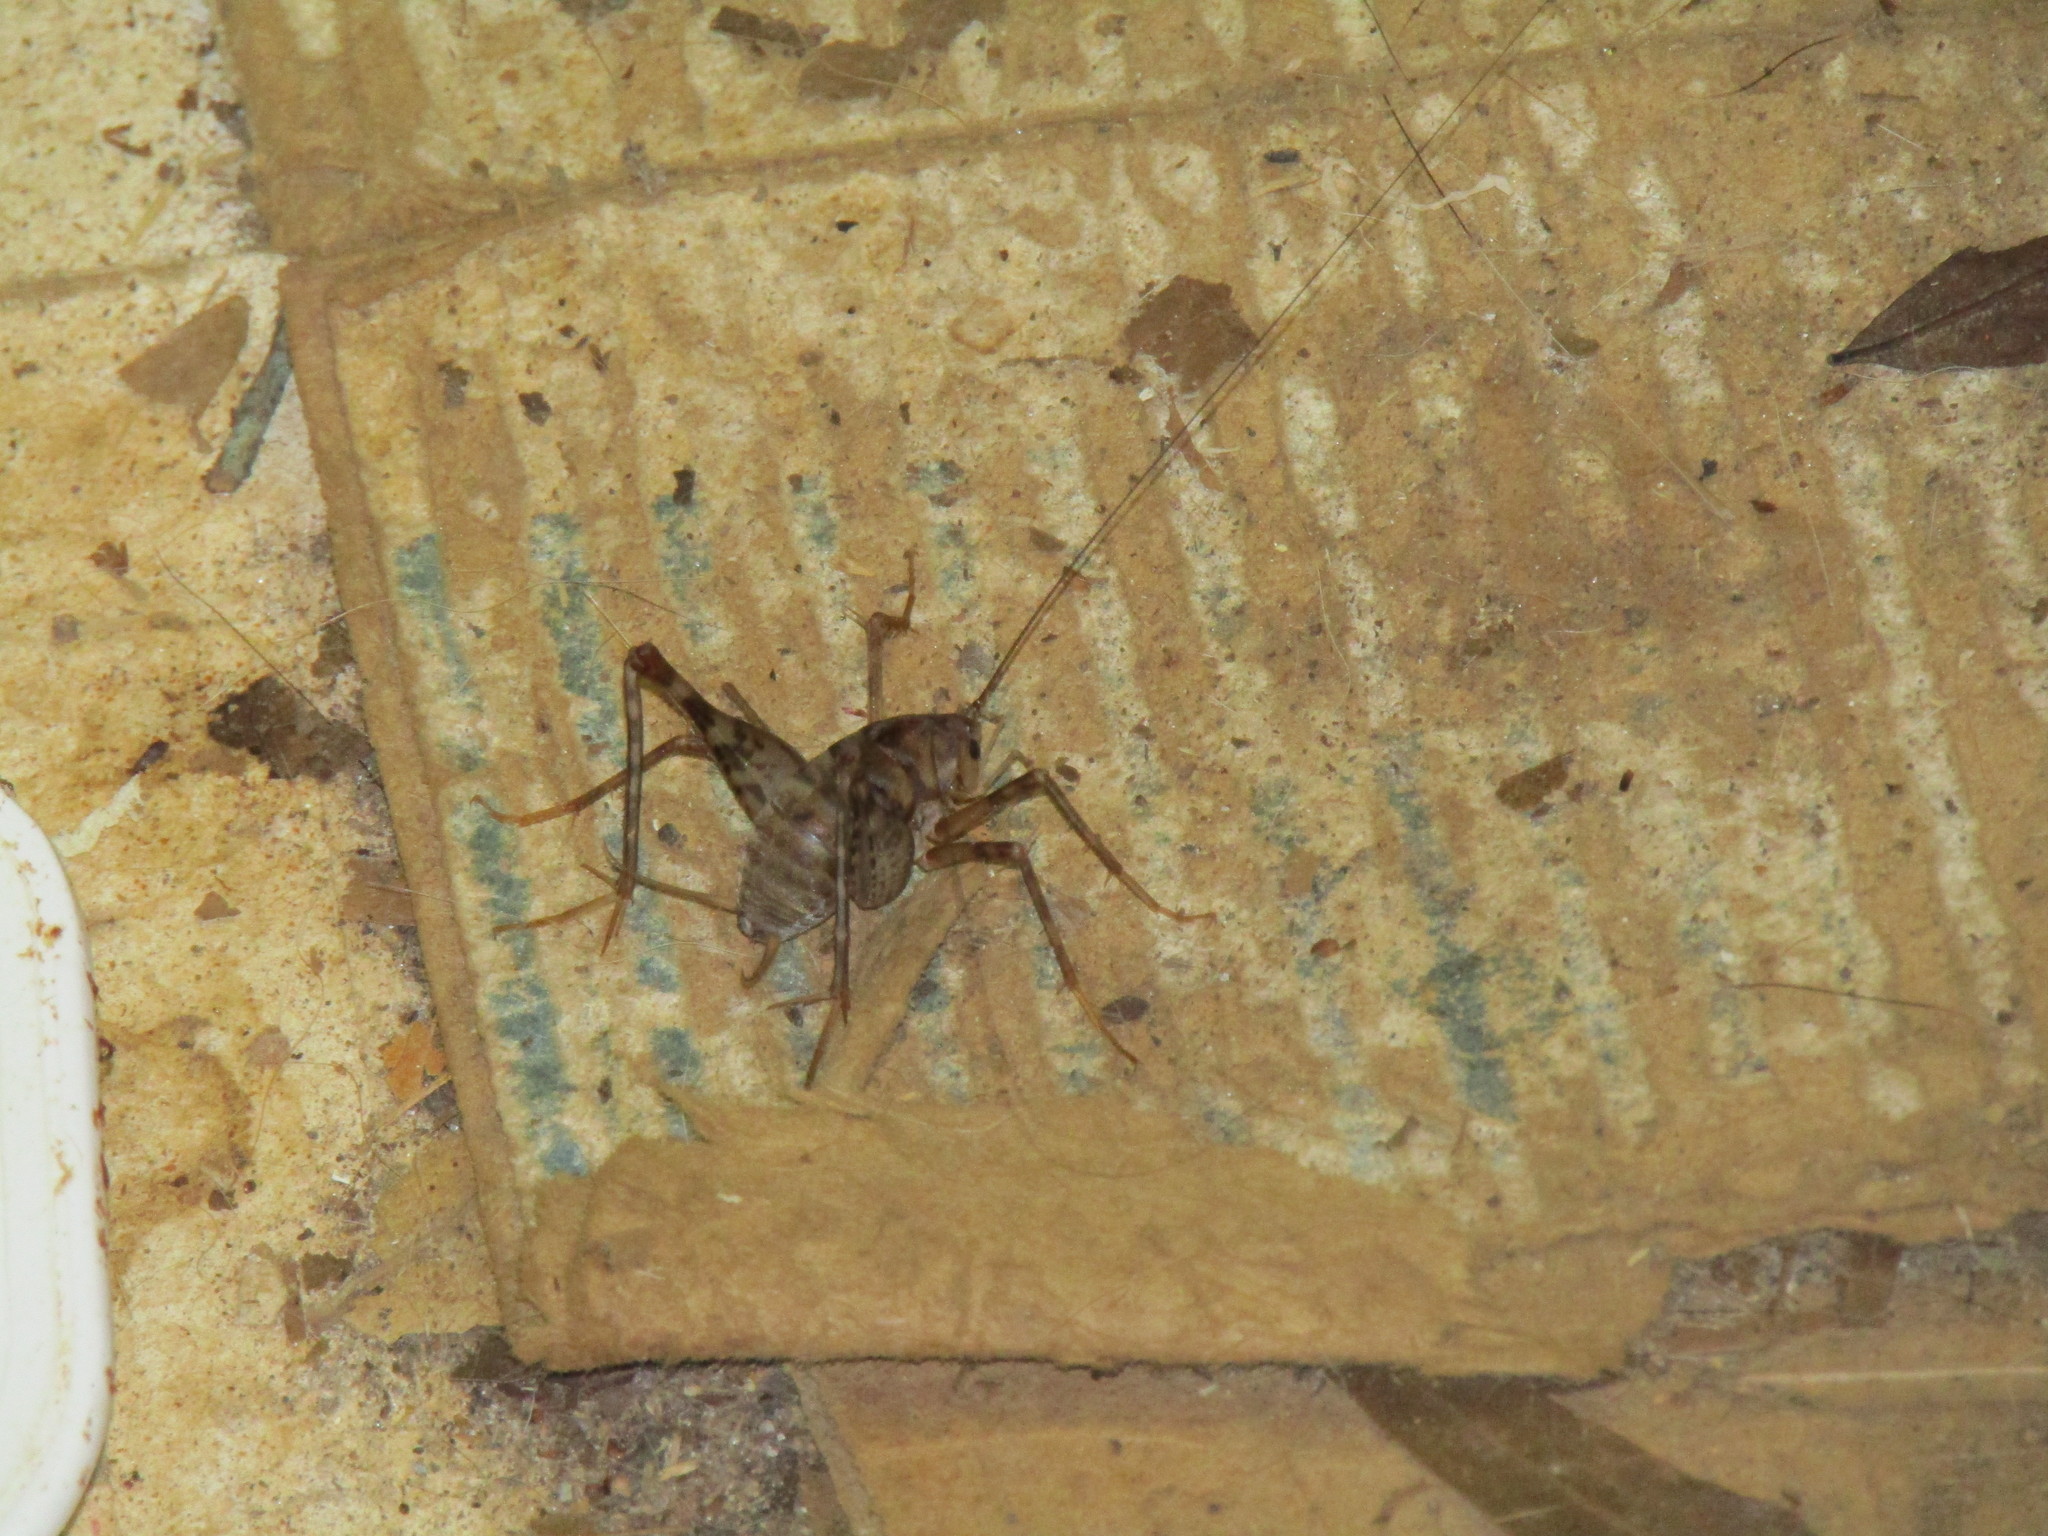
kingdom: Animalia
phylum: Arthropoda
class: Insecta
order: Orthoptera
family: Rhaphidophoridae
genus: Tachycines
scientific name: Tachycines asynamorus
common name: Greenhouse camel cricket
